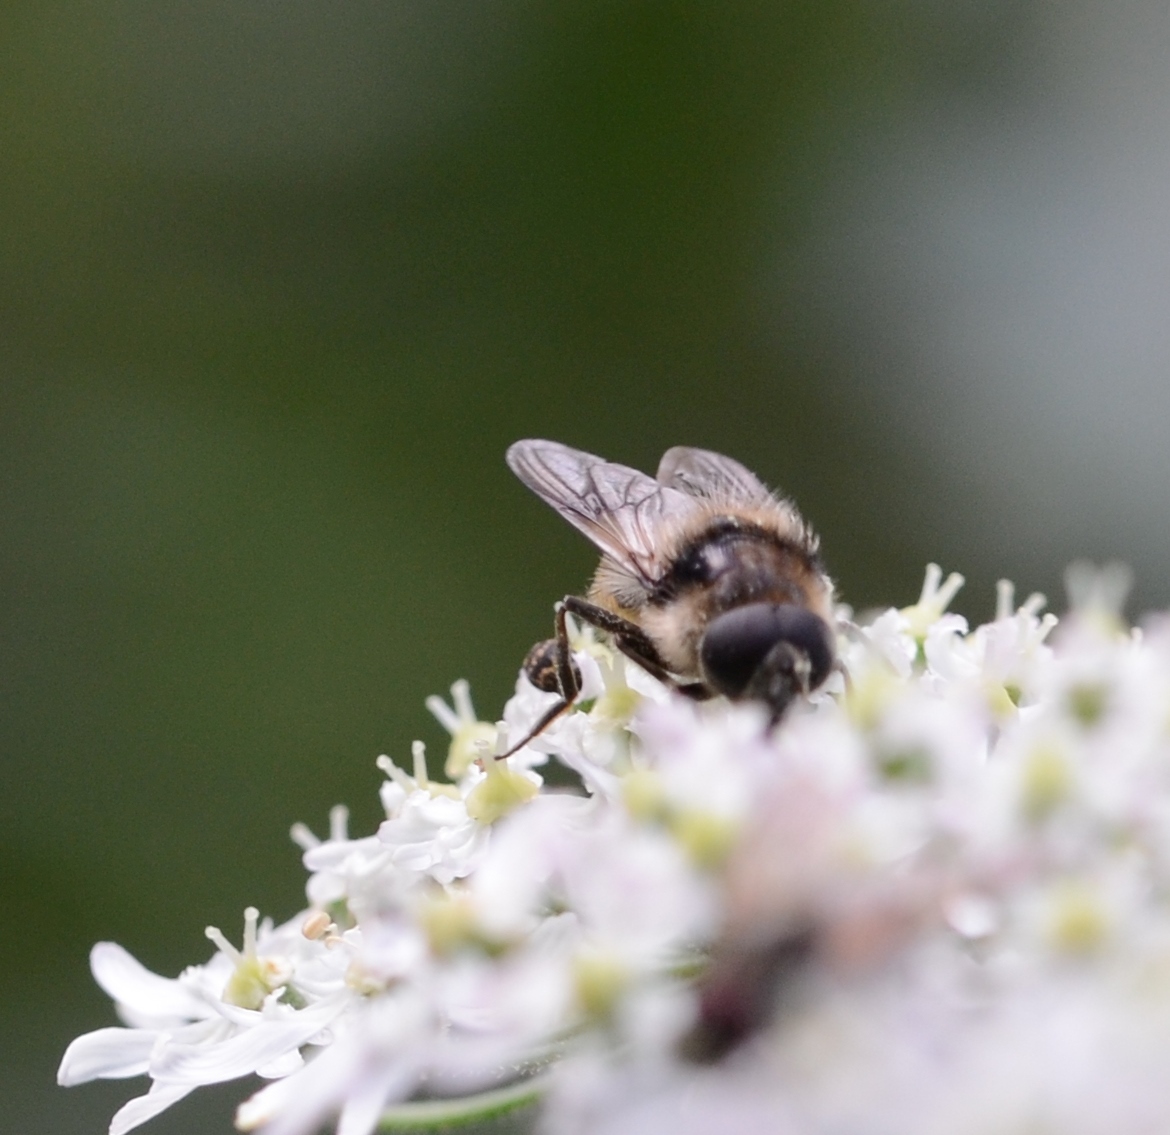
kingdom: Animalia
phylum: Arthropoda
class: Insecta
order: Diptera
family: Syrphidae
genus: Cheilosia
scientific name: Cheilosia illustrata
